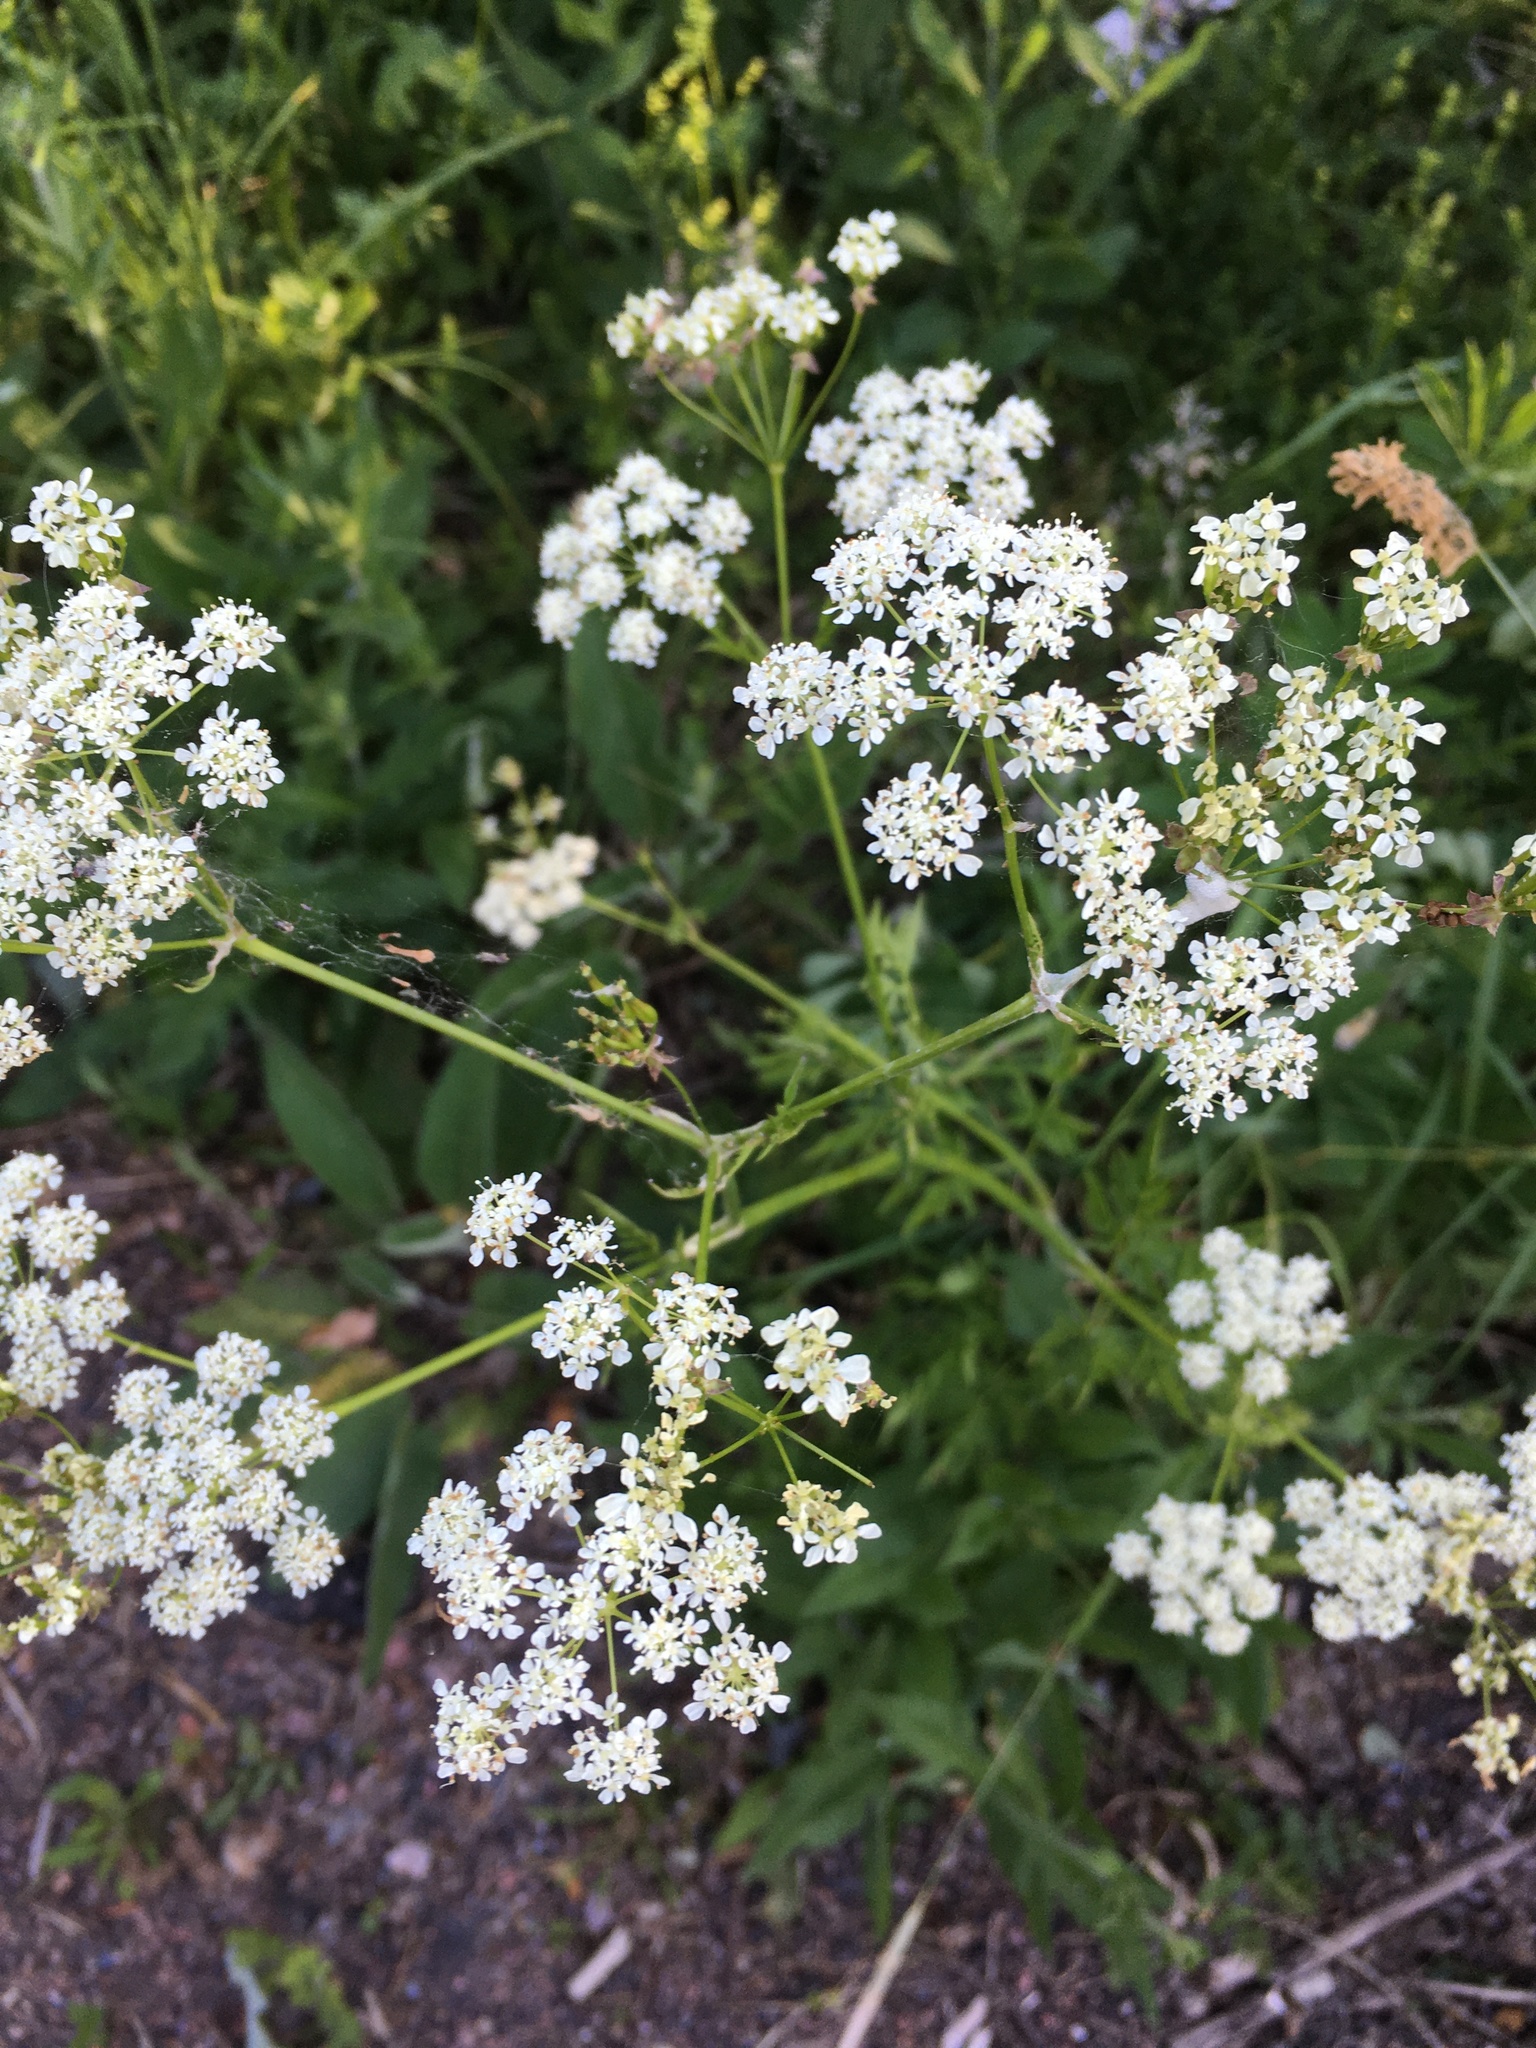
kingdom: Plantae
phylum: Tracheophyta
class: Magnoliopsida
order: Apiales
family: Apiaceae
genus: Anthriscus
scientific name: Anthriscus sylvestris
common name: Cow parsley
